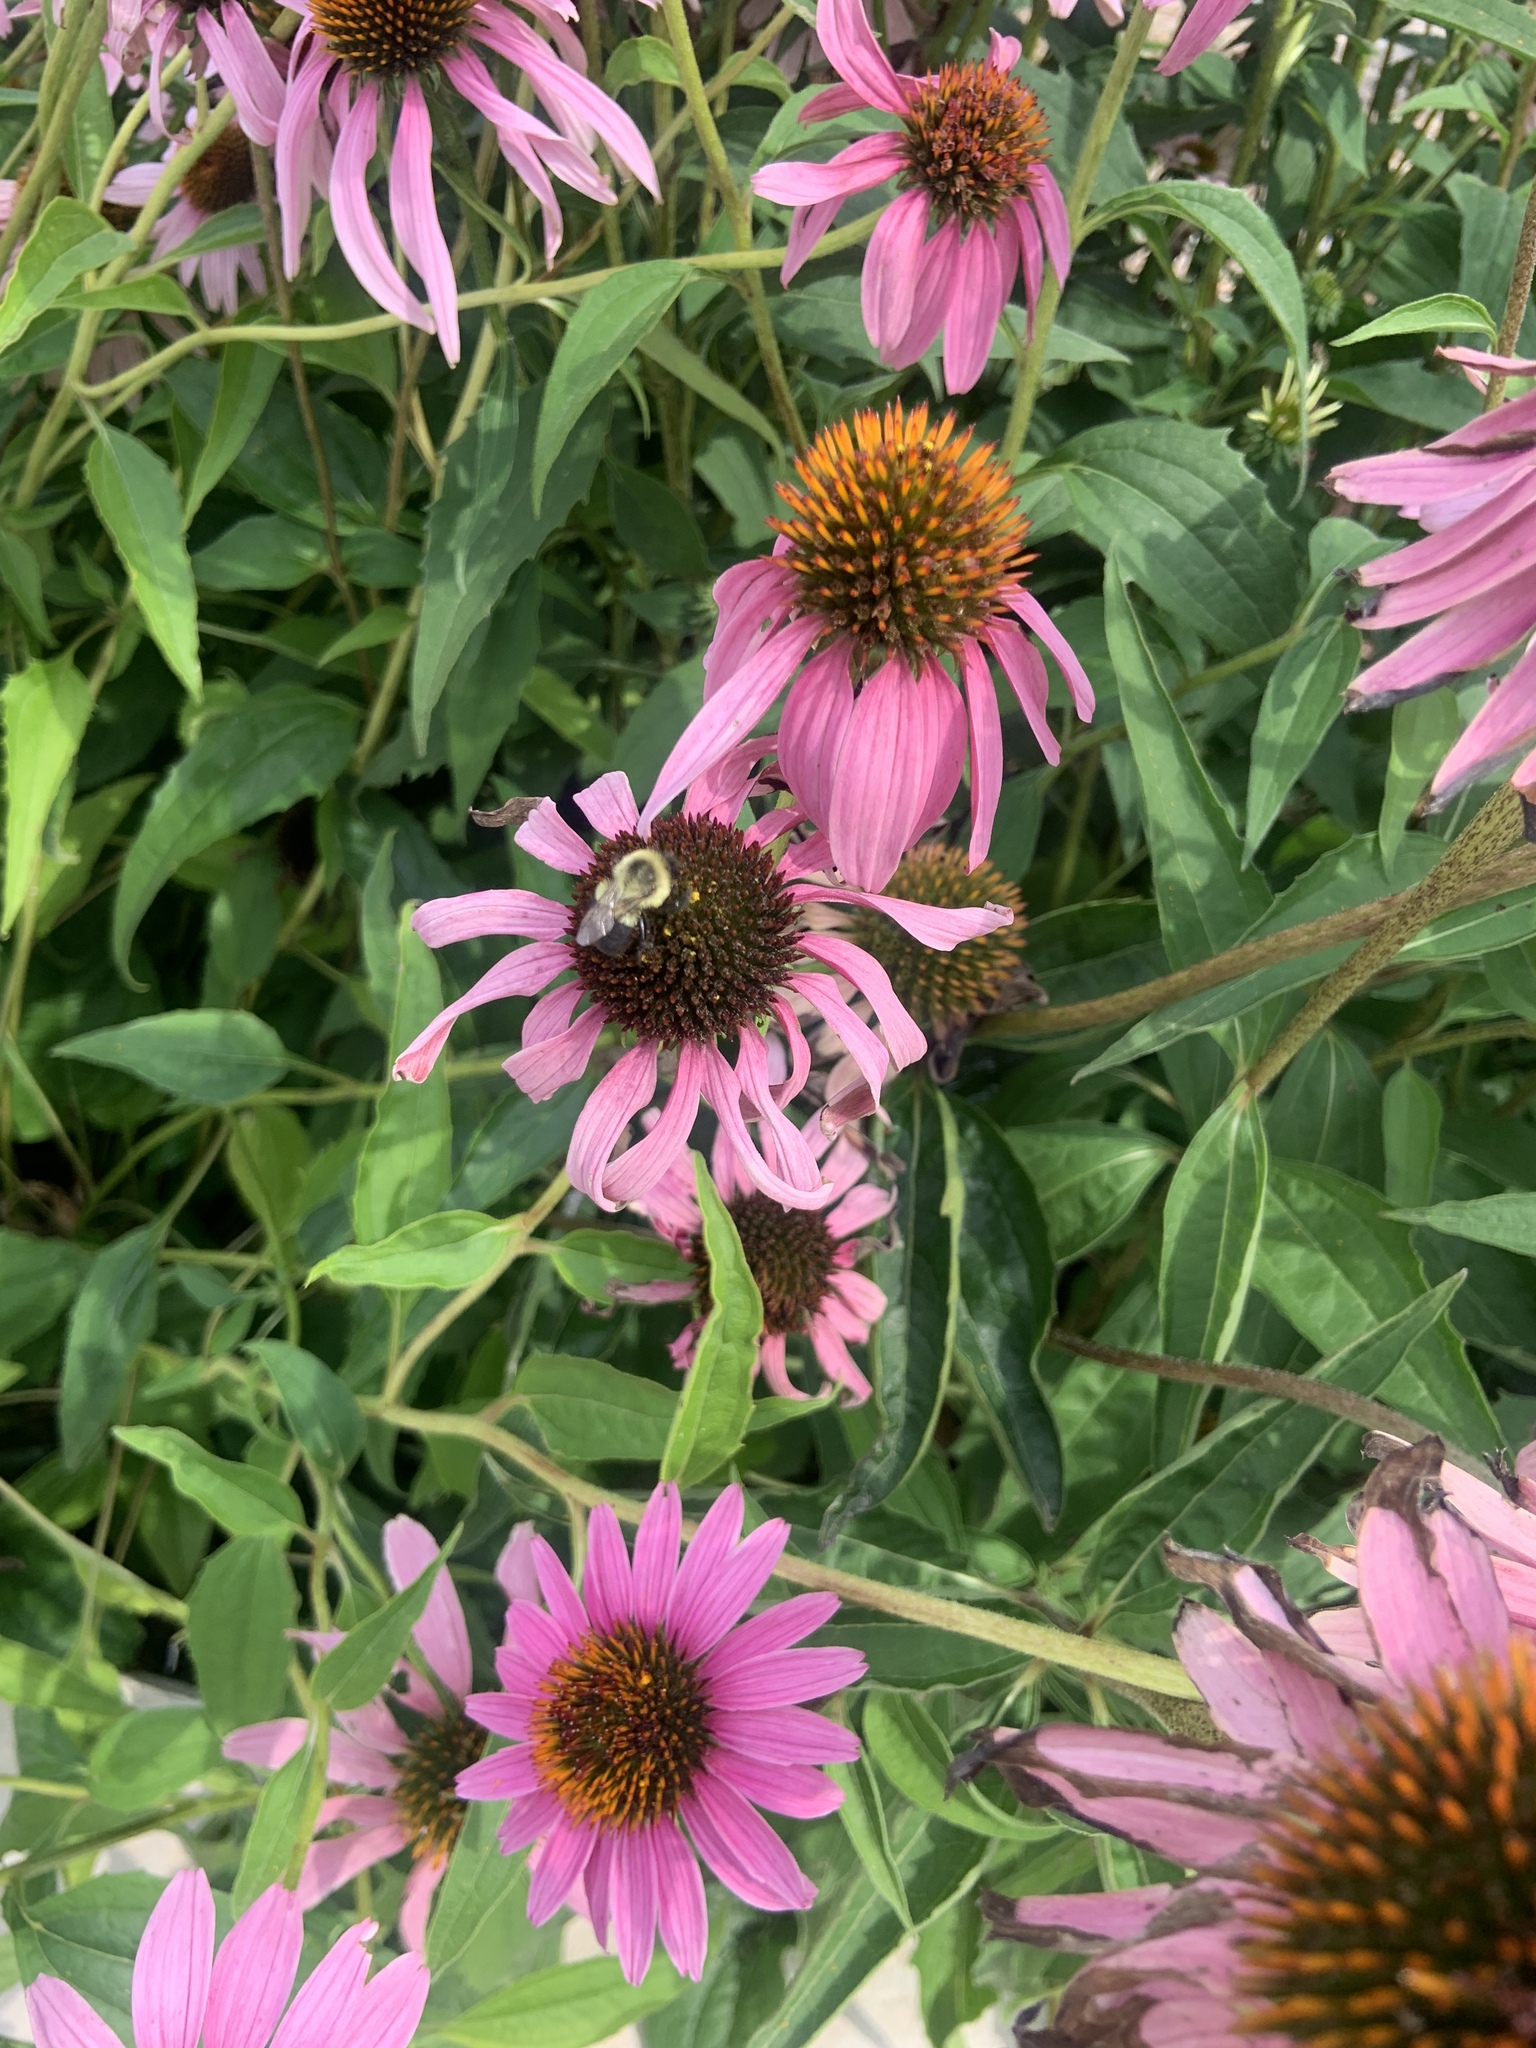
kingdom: Animalia
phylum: Arthropoda
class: Insecta
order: Hymenoptera
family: Apidae
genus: Bombus
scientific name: Bombus impatiens
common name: Common eastern bumble bee
